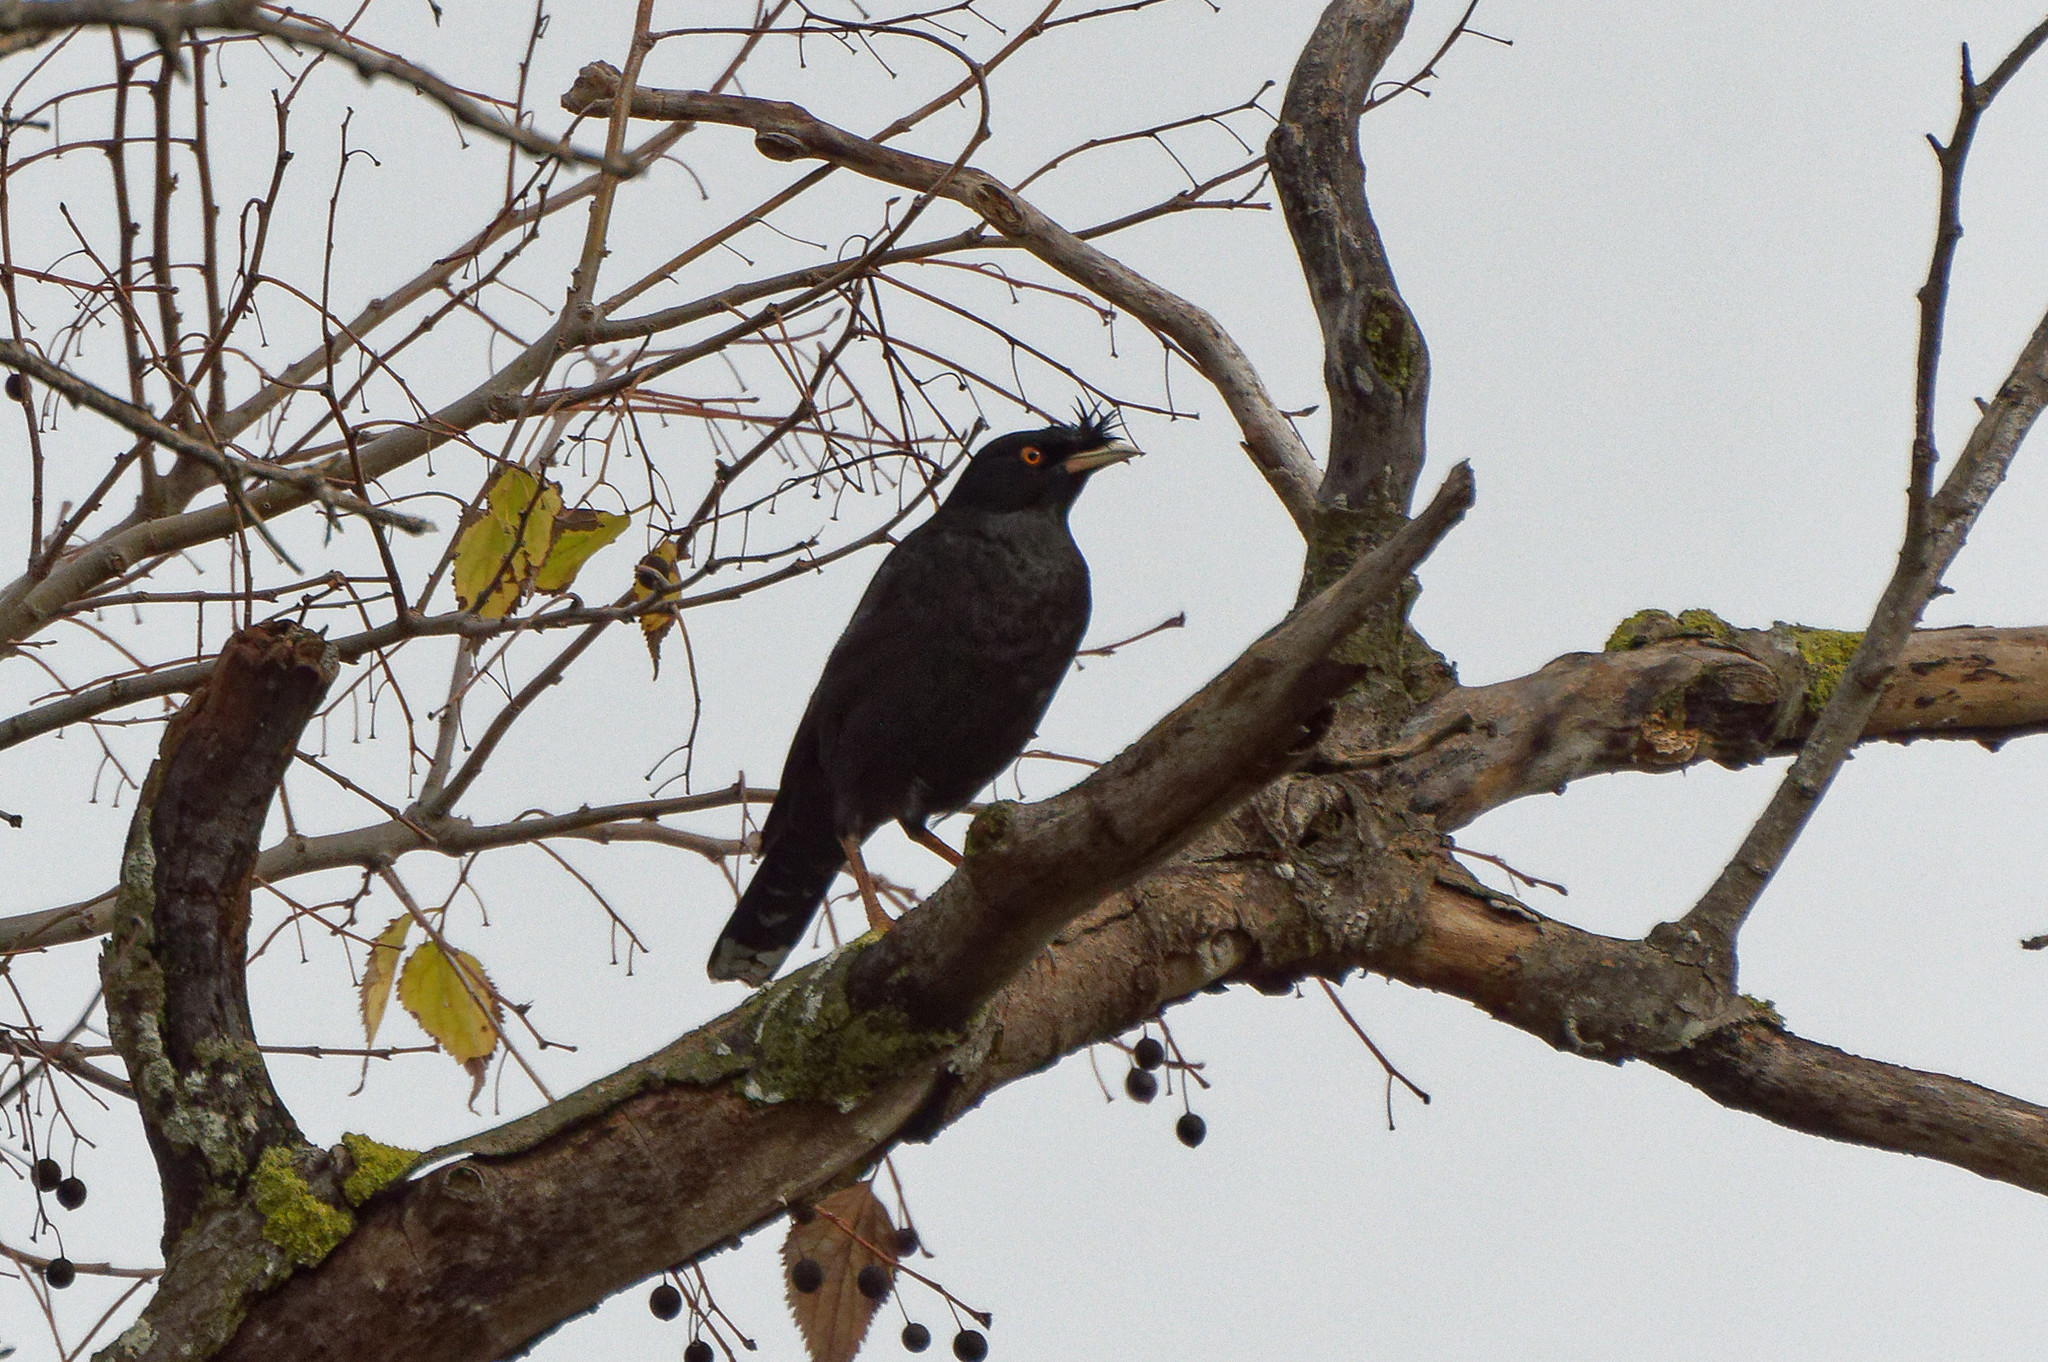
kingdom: Animalia
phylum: Chordata
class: Aves
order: Passeriformes
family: Sturnidae
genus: Acridotheres
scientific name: Acridotheres cristatellus
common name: Crested myna
